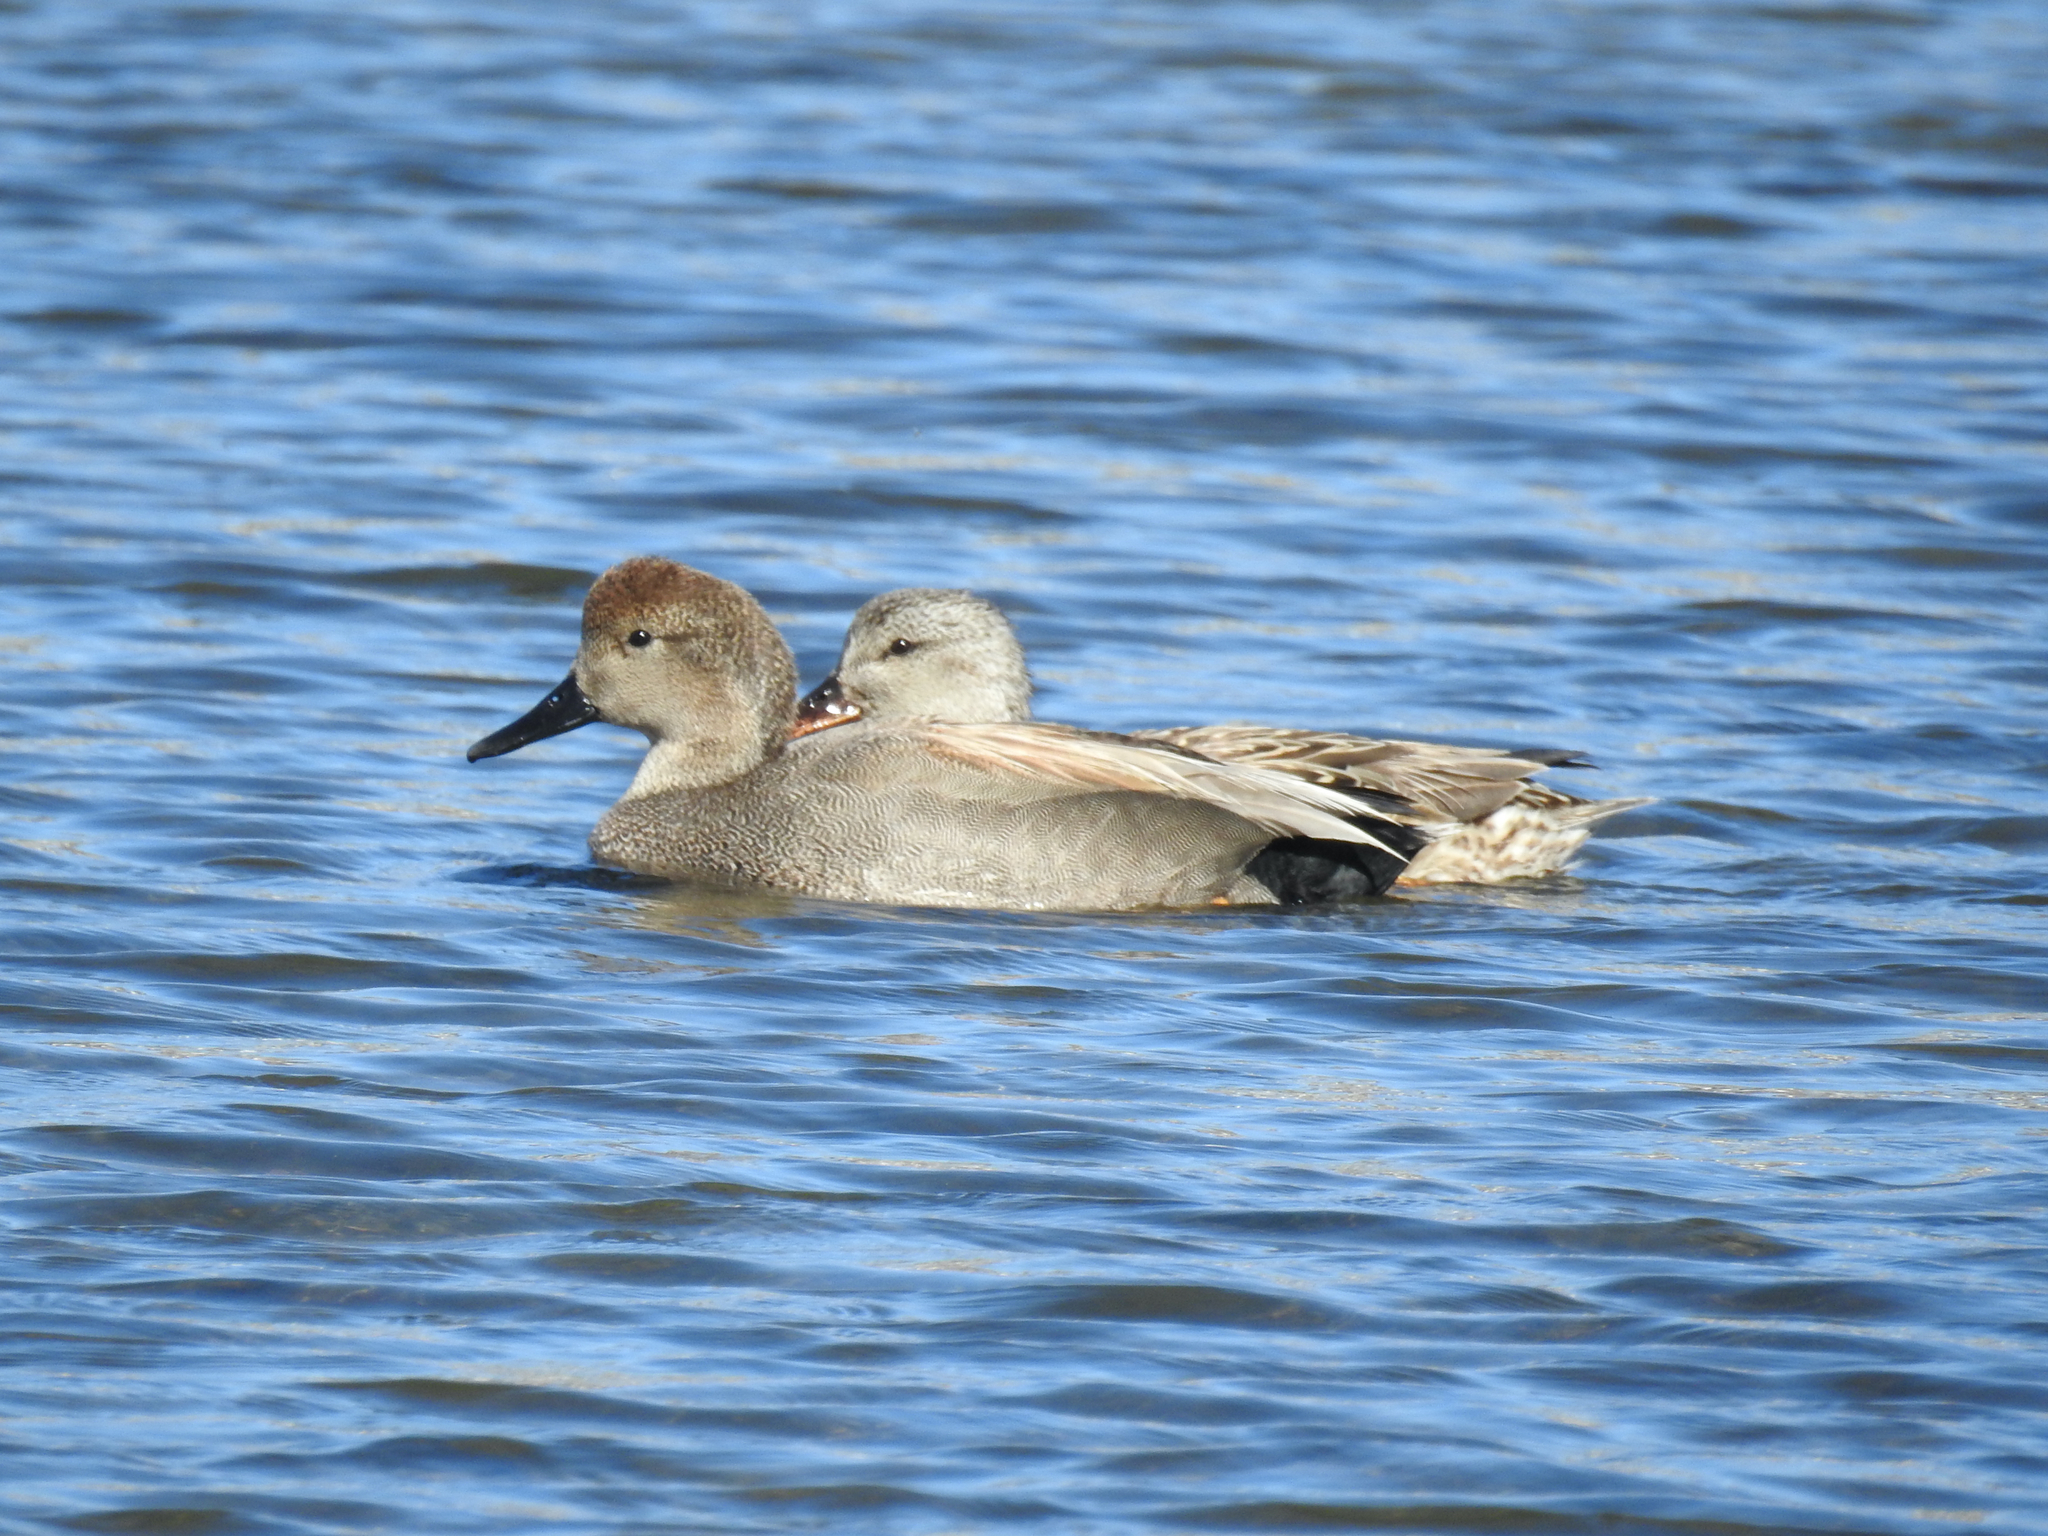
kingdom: Animalia
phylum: Chordata
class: Aves
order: Anseriformes
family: Anatidae
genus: Mareca
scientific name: Mareca strepera
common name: Gadwall
